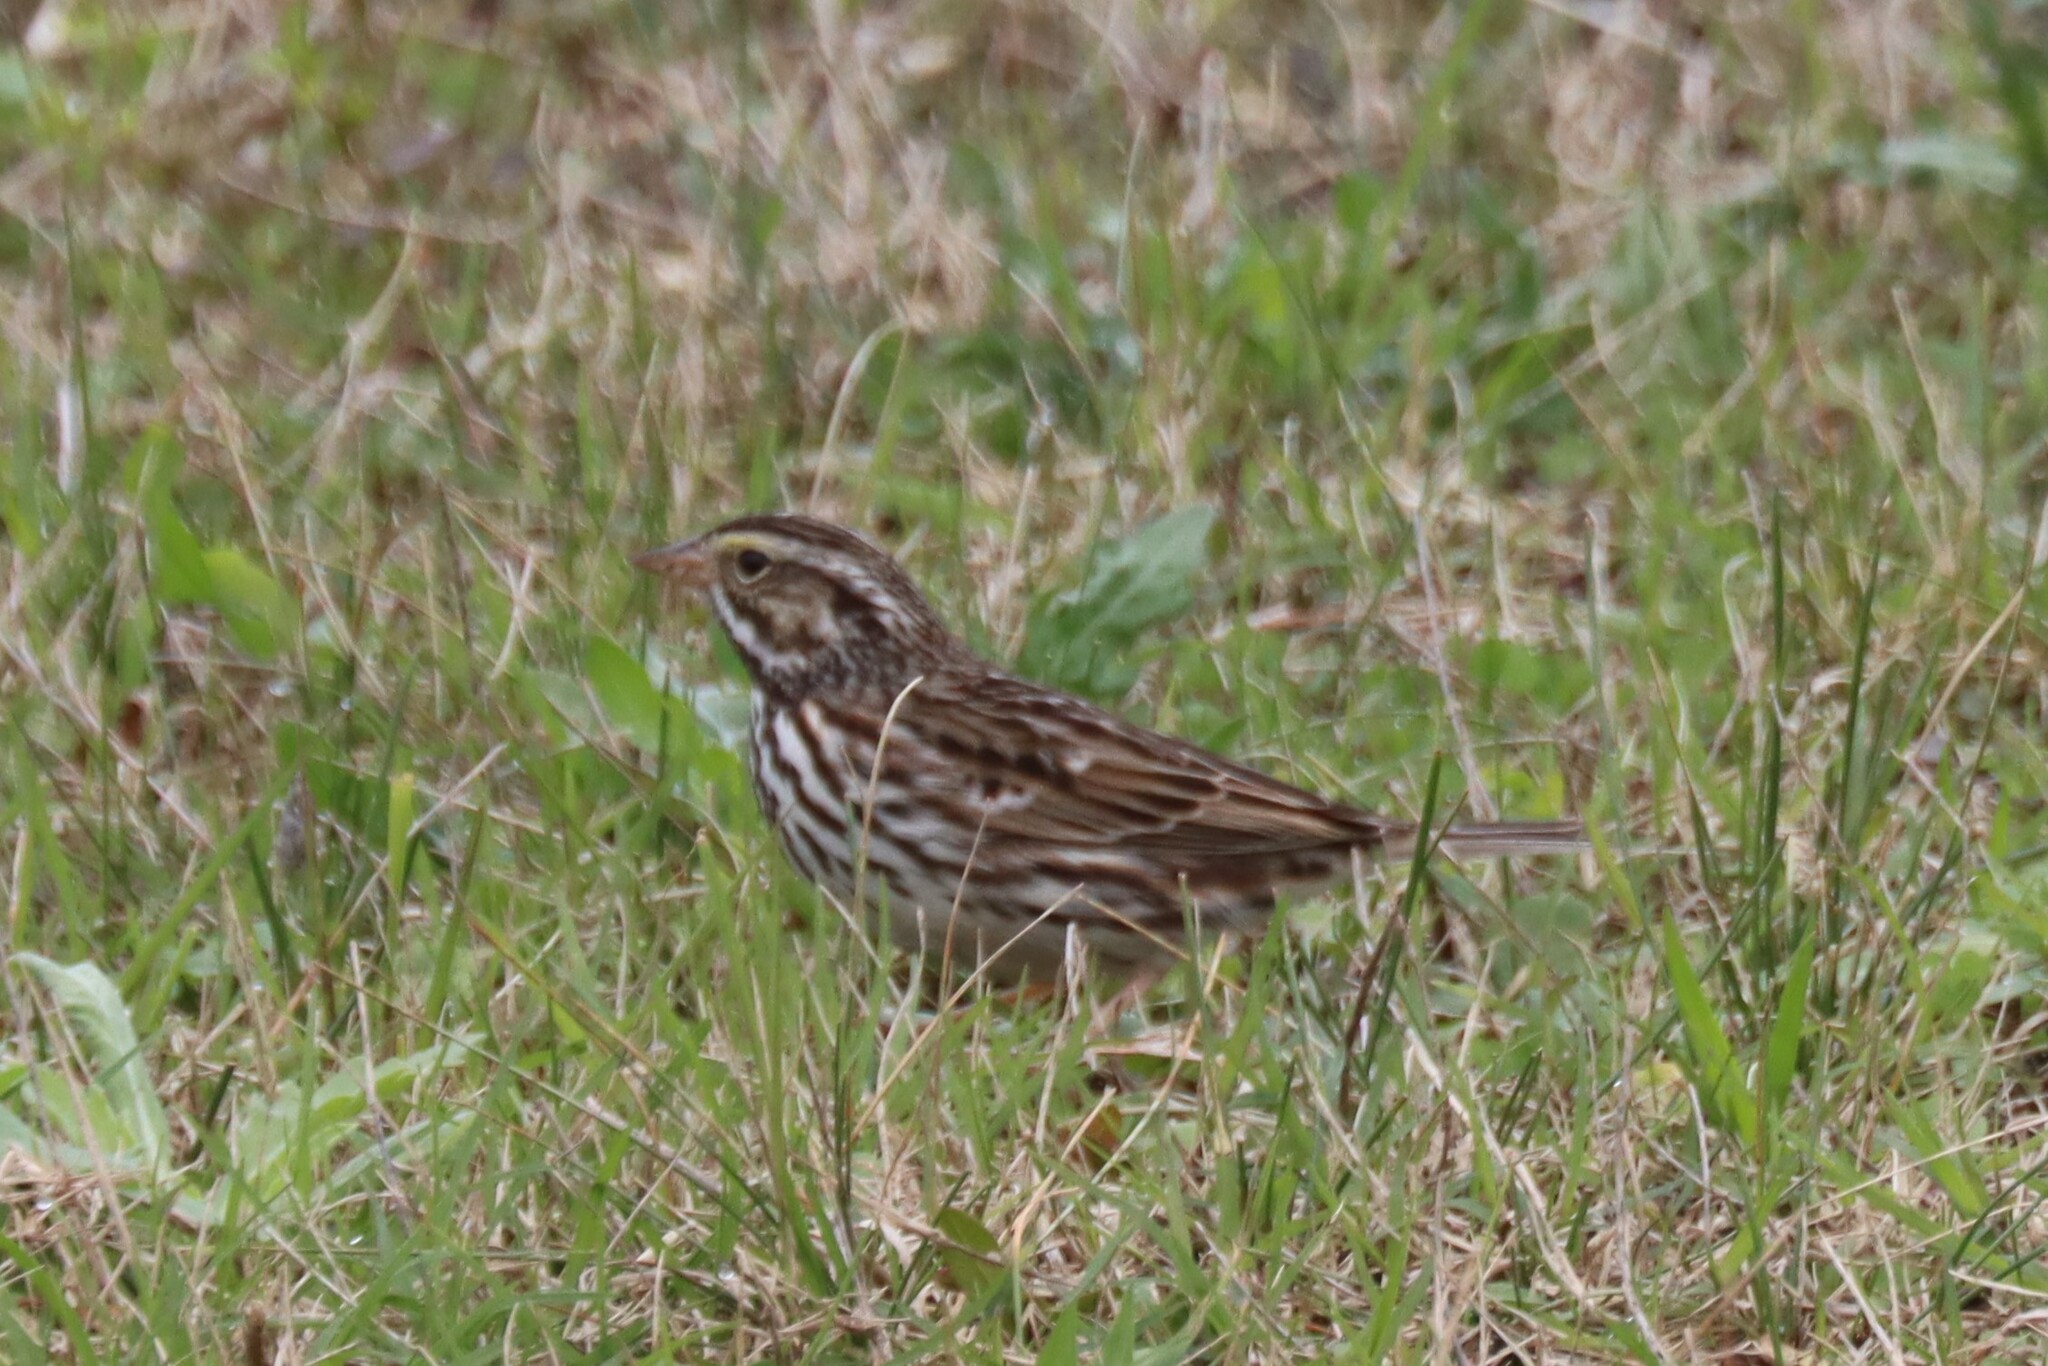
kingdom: Animalia
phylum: Chordata
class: Aves
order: Passeriformes
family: Passerellidae
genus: Passerculus
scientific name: Passerculus sandwichensis
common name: Savannah sparrow
